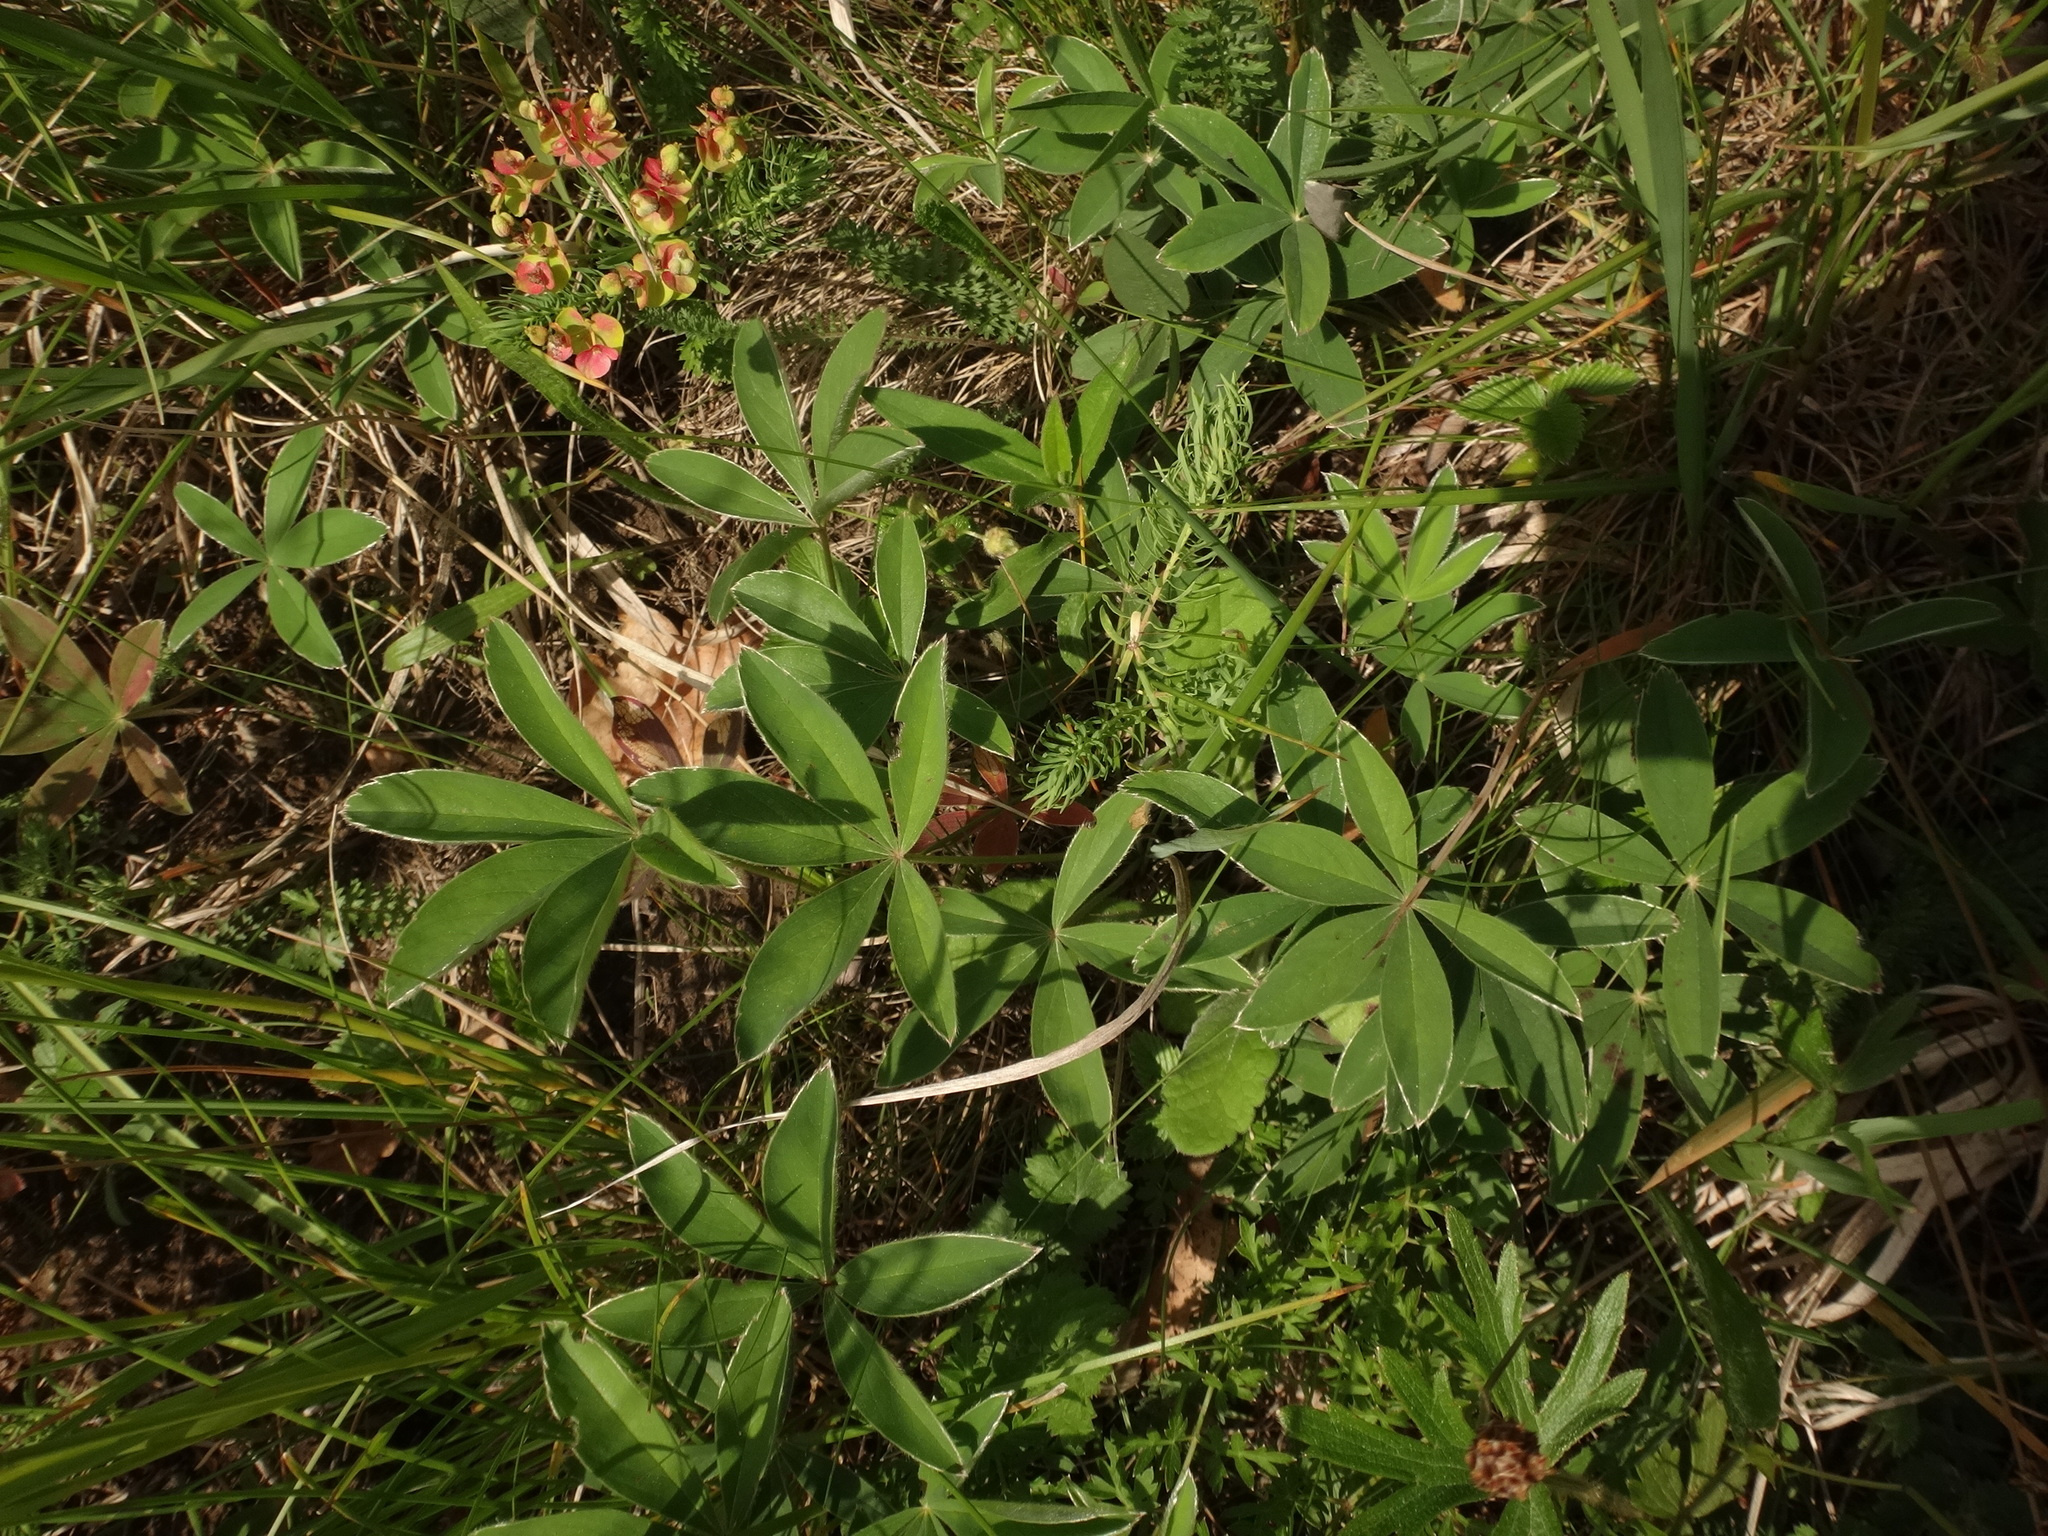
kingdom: Plantae
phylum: Tracheophyta
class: Magnoliopsida
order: Rosales
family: Rosaceae
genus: Potentilla
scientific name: Potentilla alba
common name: White cinquefoil
